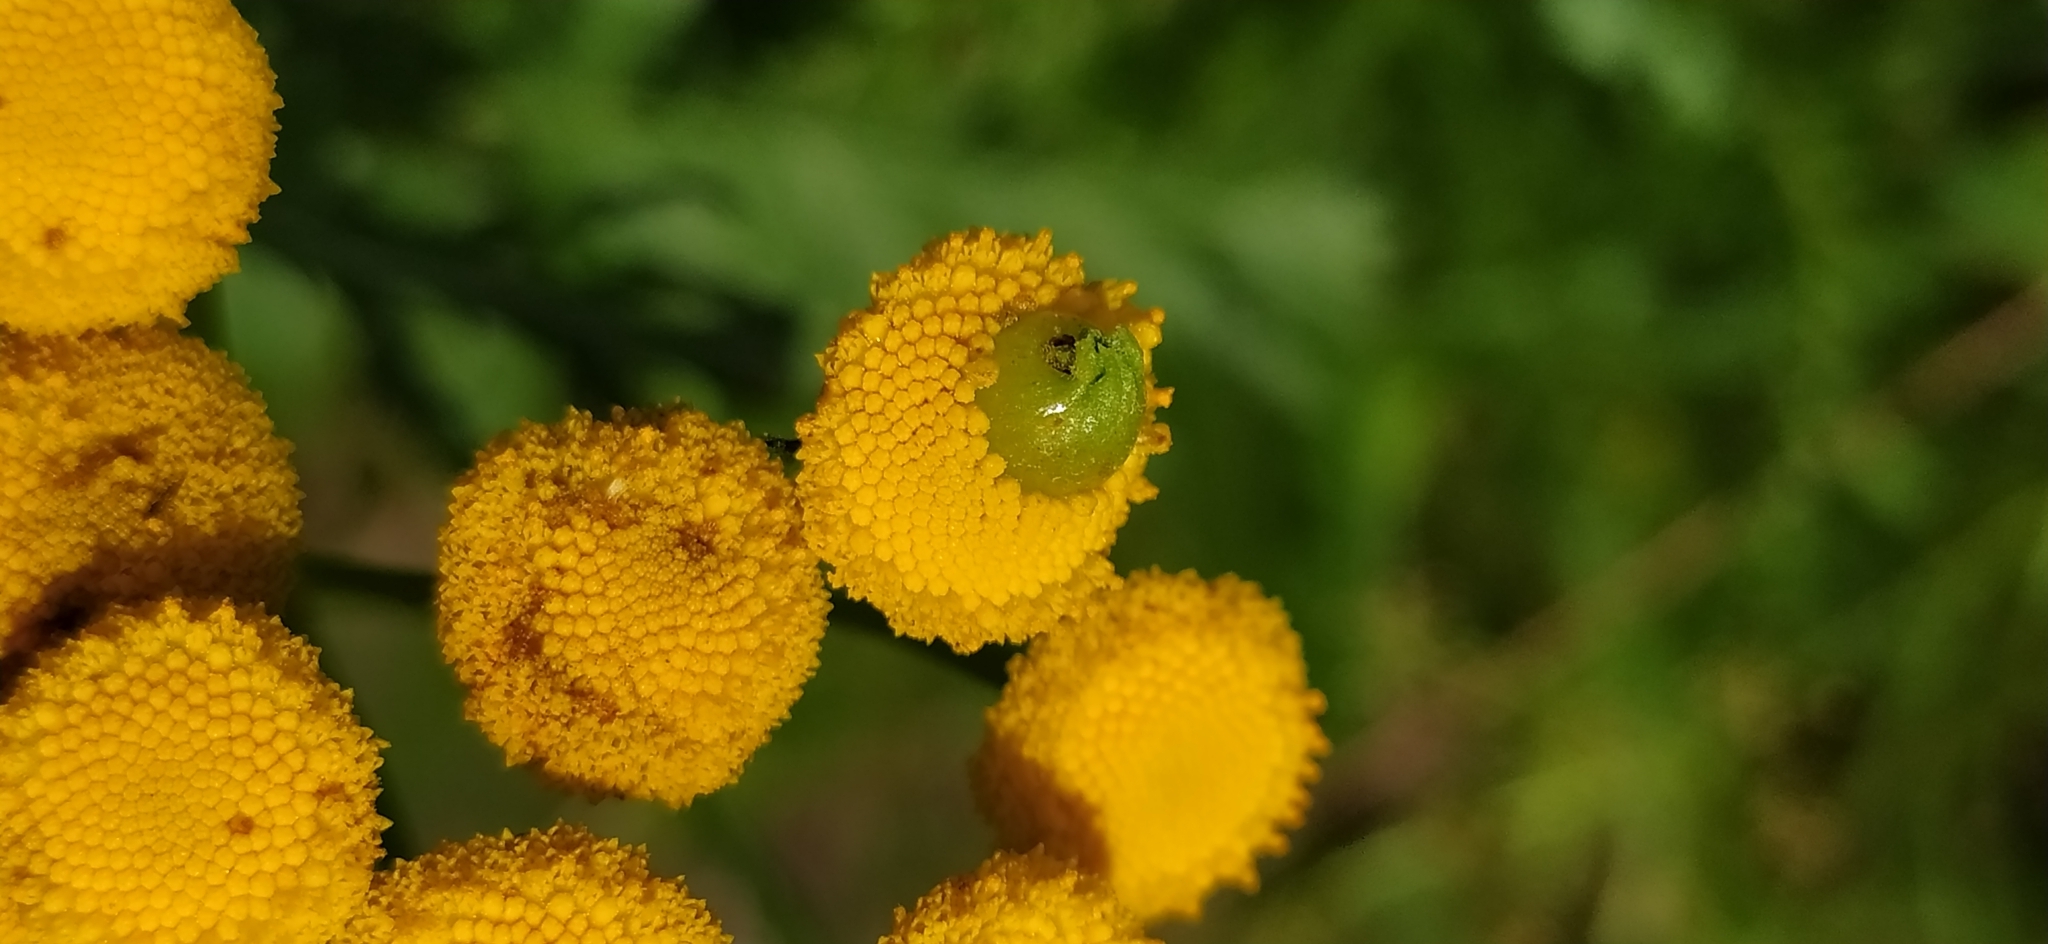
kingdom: Animalia
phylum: Arthropoda
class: Insecta
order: Diptera
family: Cecidomyiidae
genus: Rhopalomyia
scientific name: Rhopalomyia tanaceticolus
